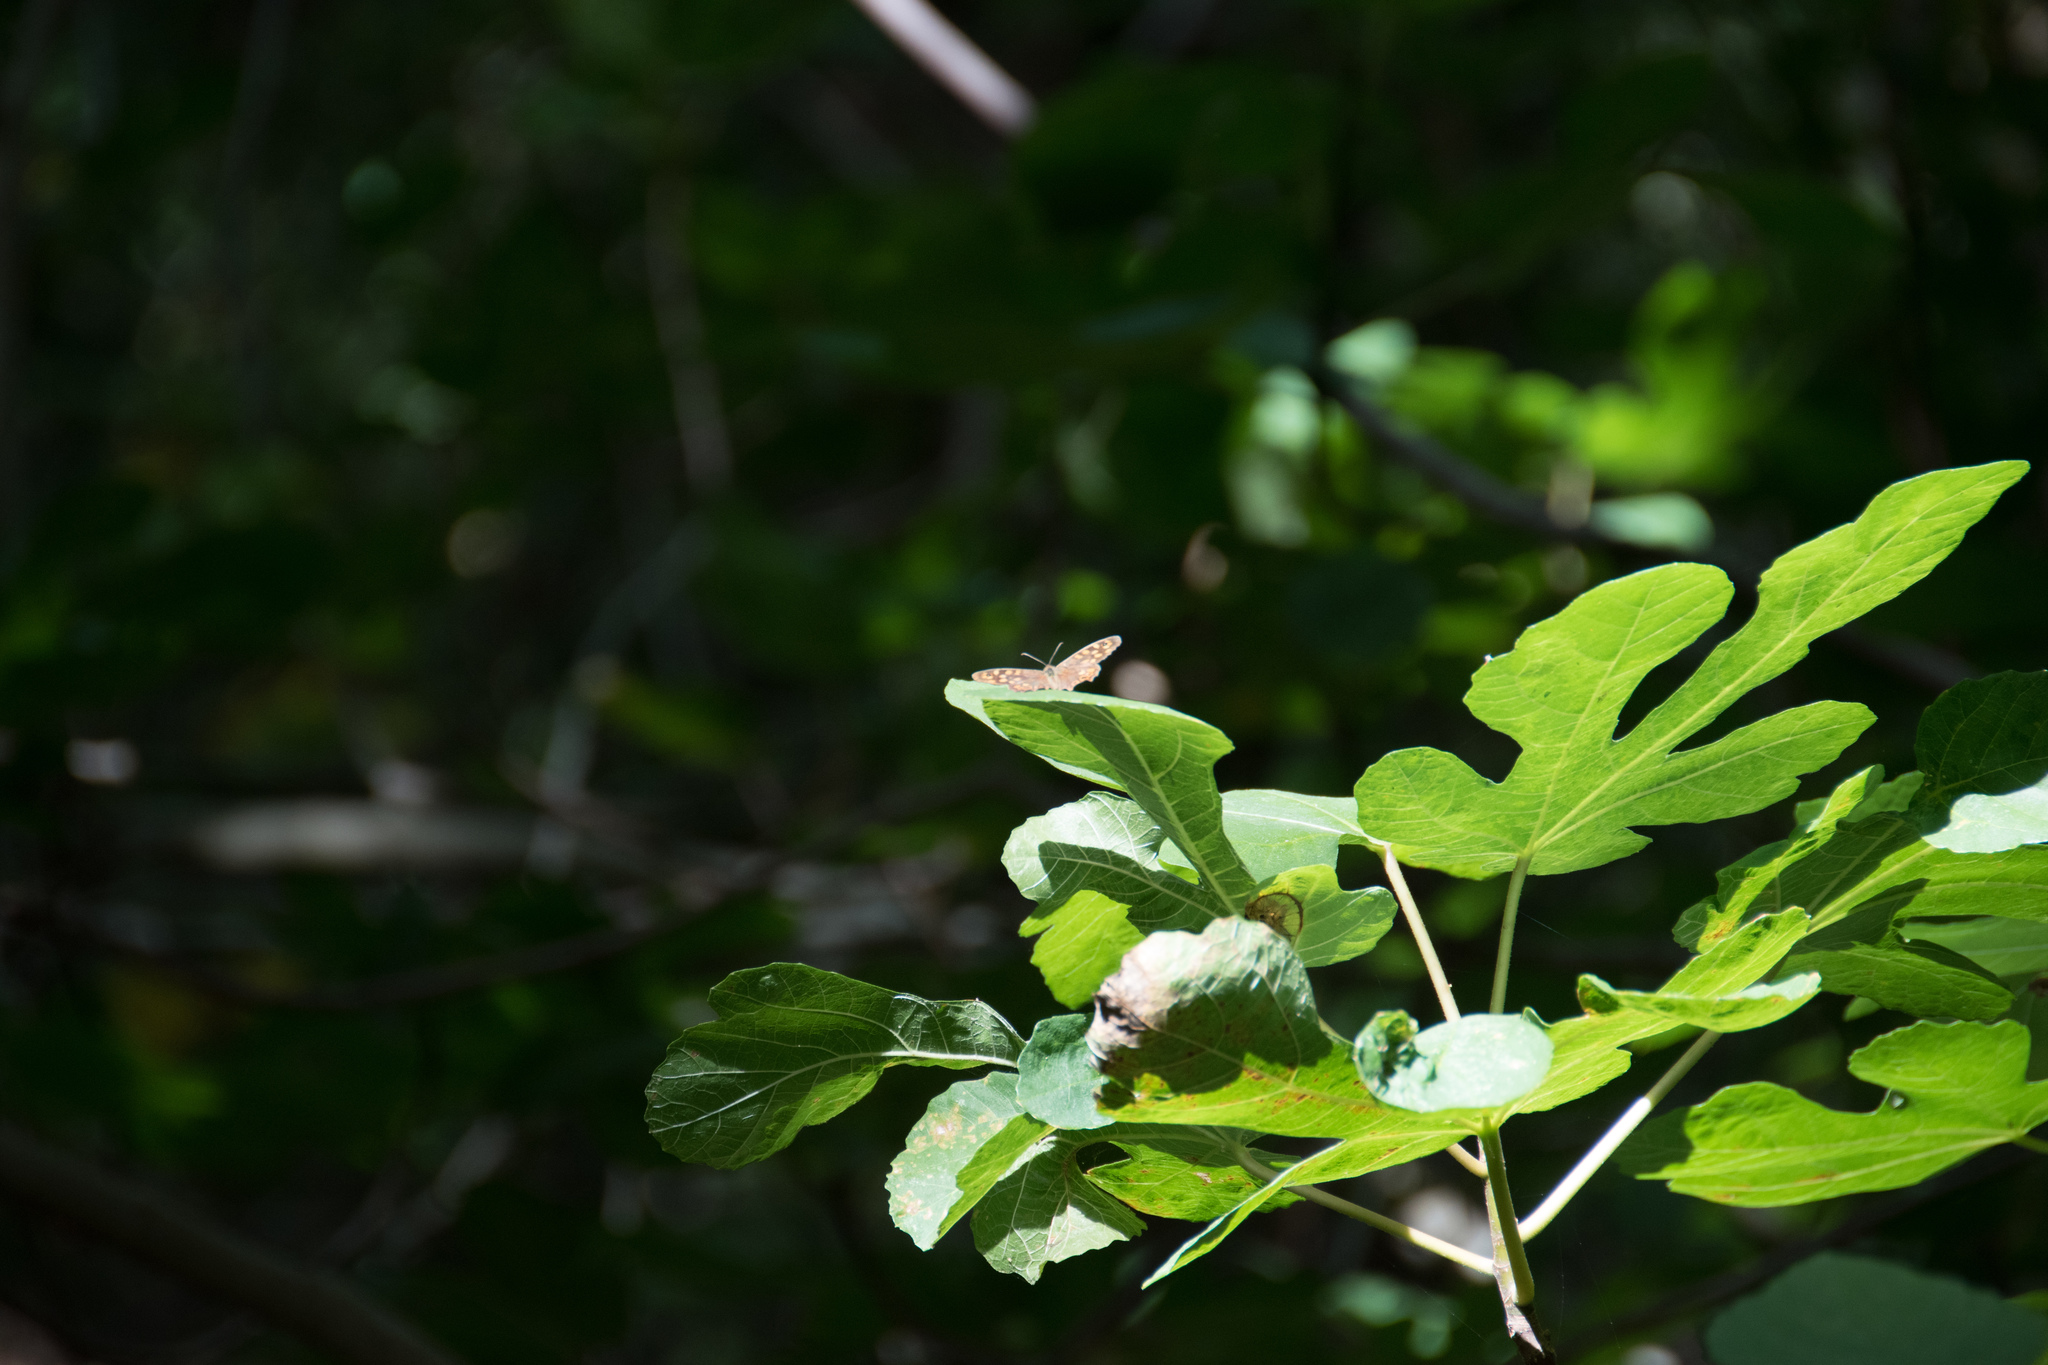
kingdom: Animalia
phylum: Arthropoda
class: Insecta
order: Lepidoptera
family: Nymphalidae
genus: Pararge
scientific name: Pararge aegeria
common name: Speckled wood
